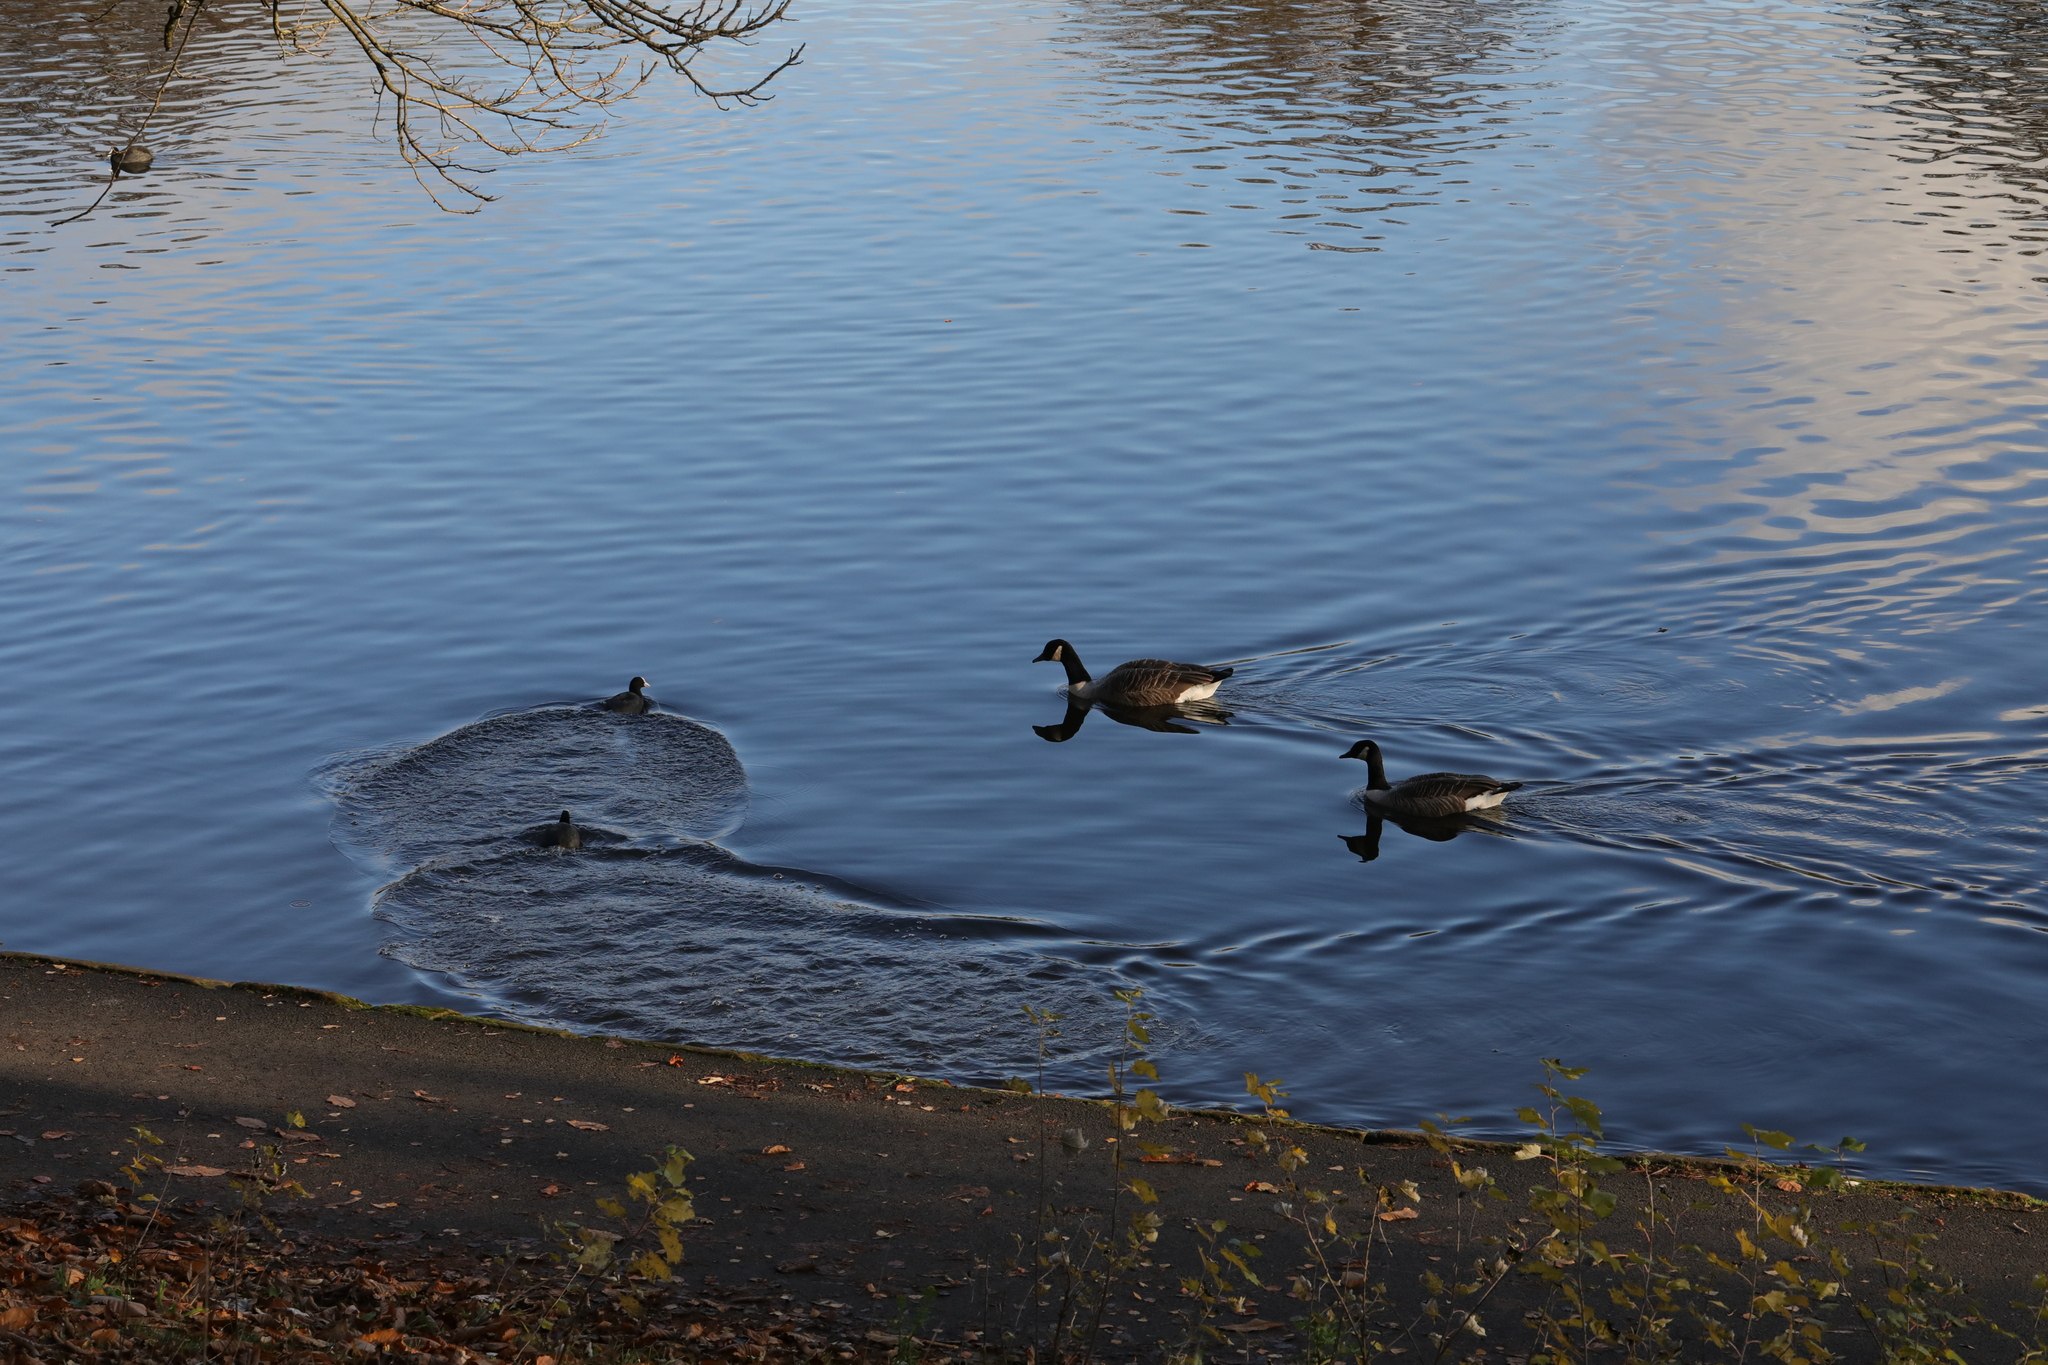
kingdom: Animalia
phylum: Chordata
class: Aves
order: Gruiformes
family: Rallidae
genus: Fulica
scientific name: Fulica atra
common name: Eurasian coot
